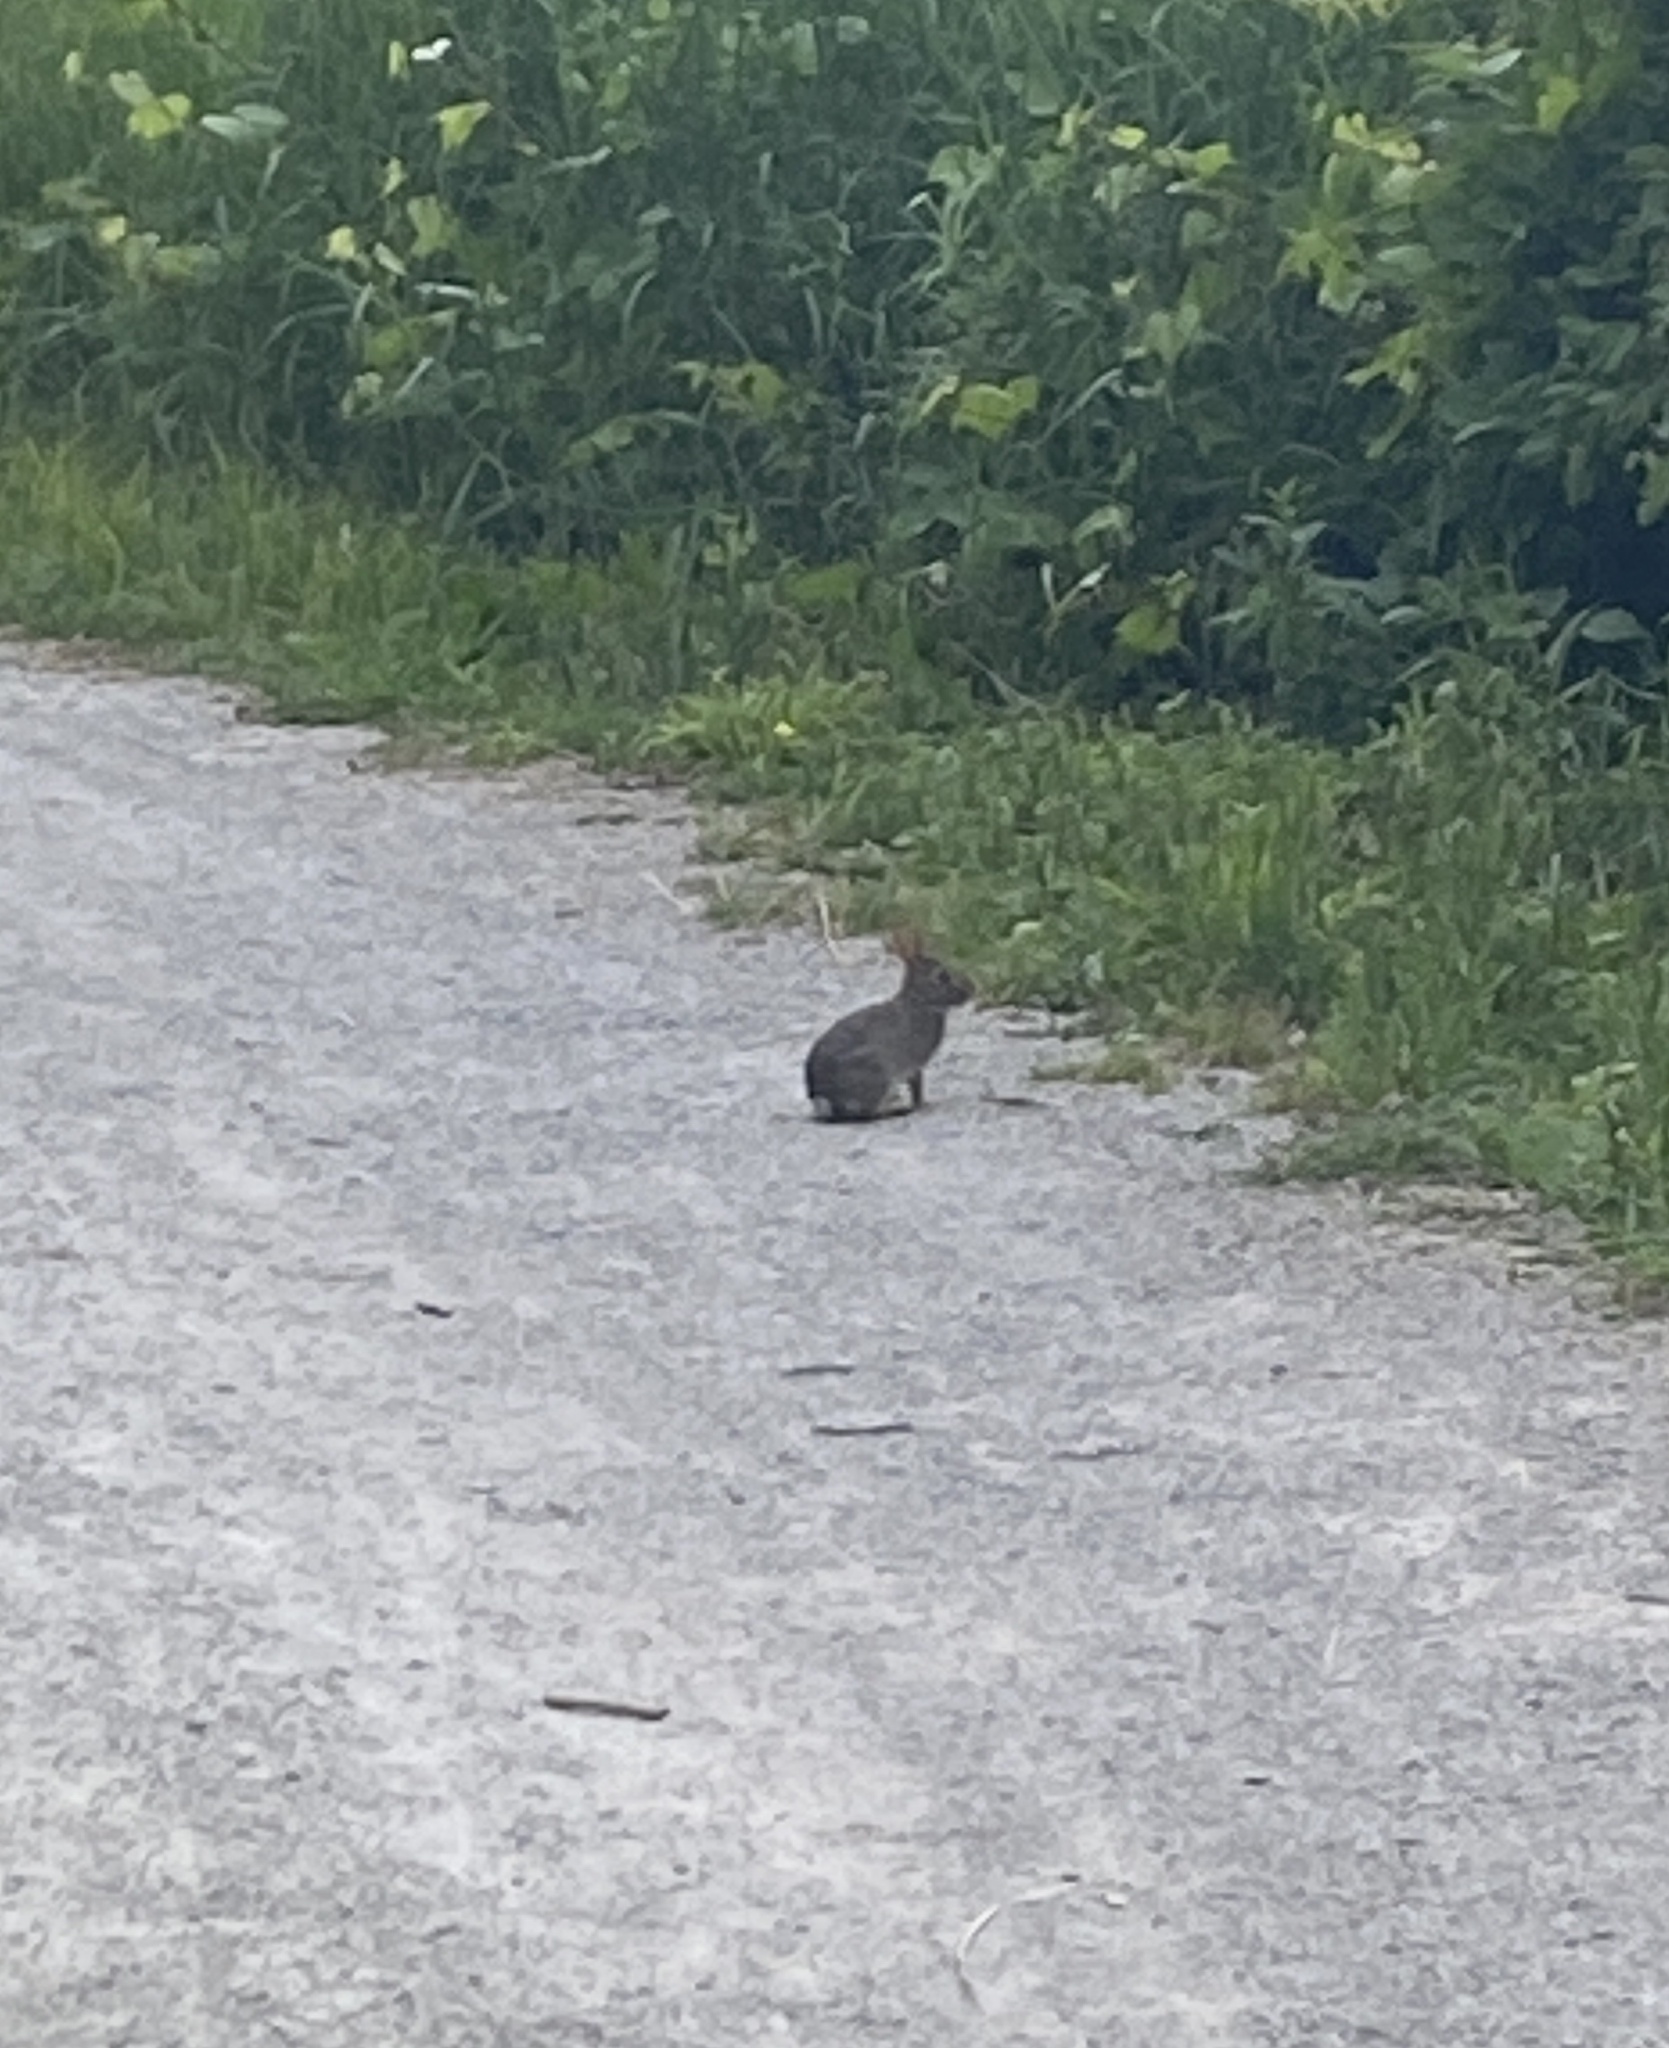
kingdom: Animalia
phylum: Chordata
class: Mammalia
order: Lagomorpha
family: Leporidae
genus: Sylvilagus
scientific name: Sylvilagus floridanus
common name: Eastern cottontail
